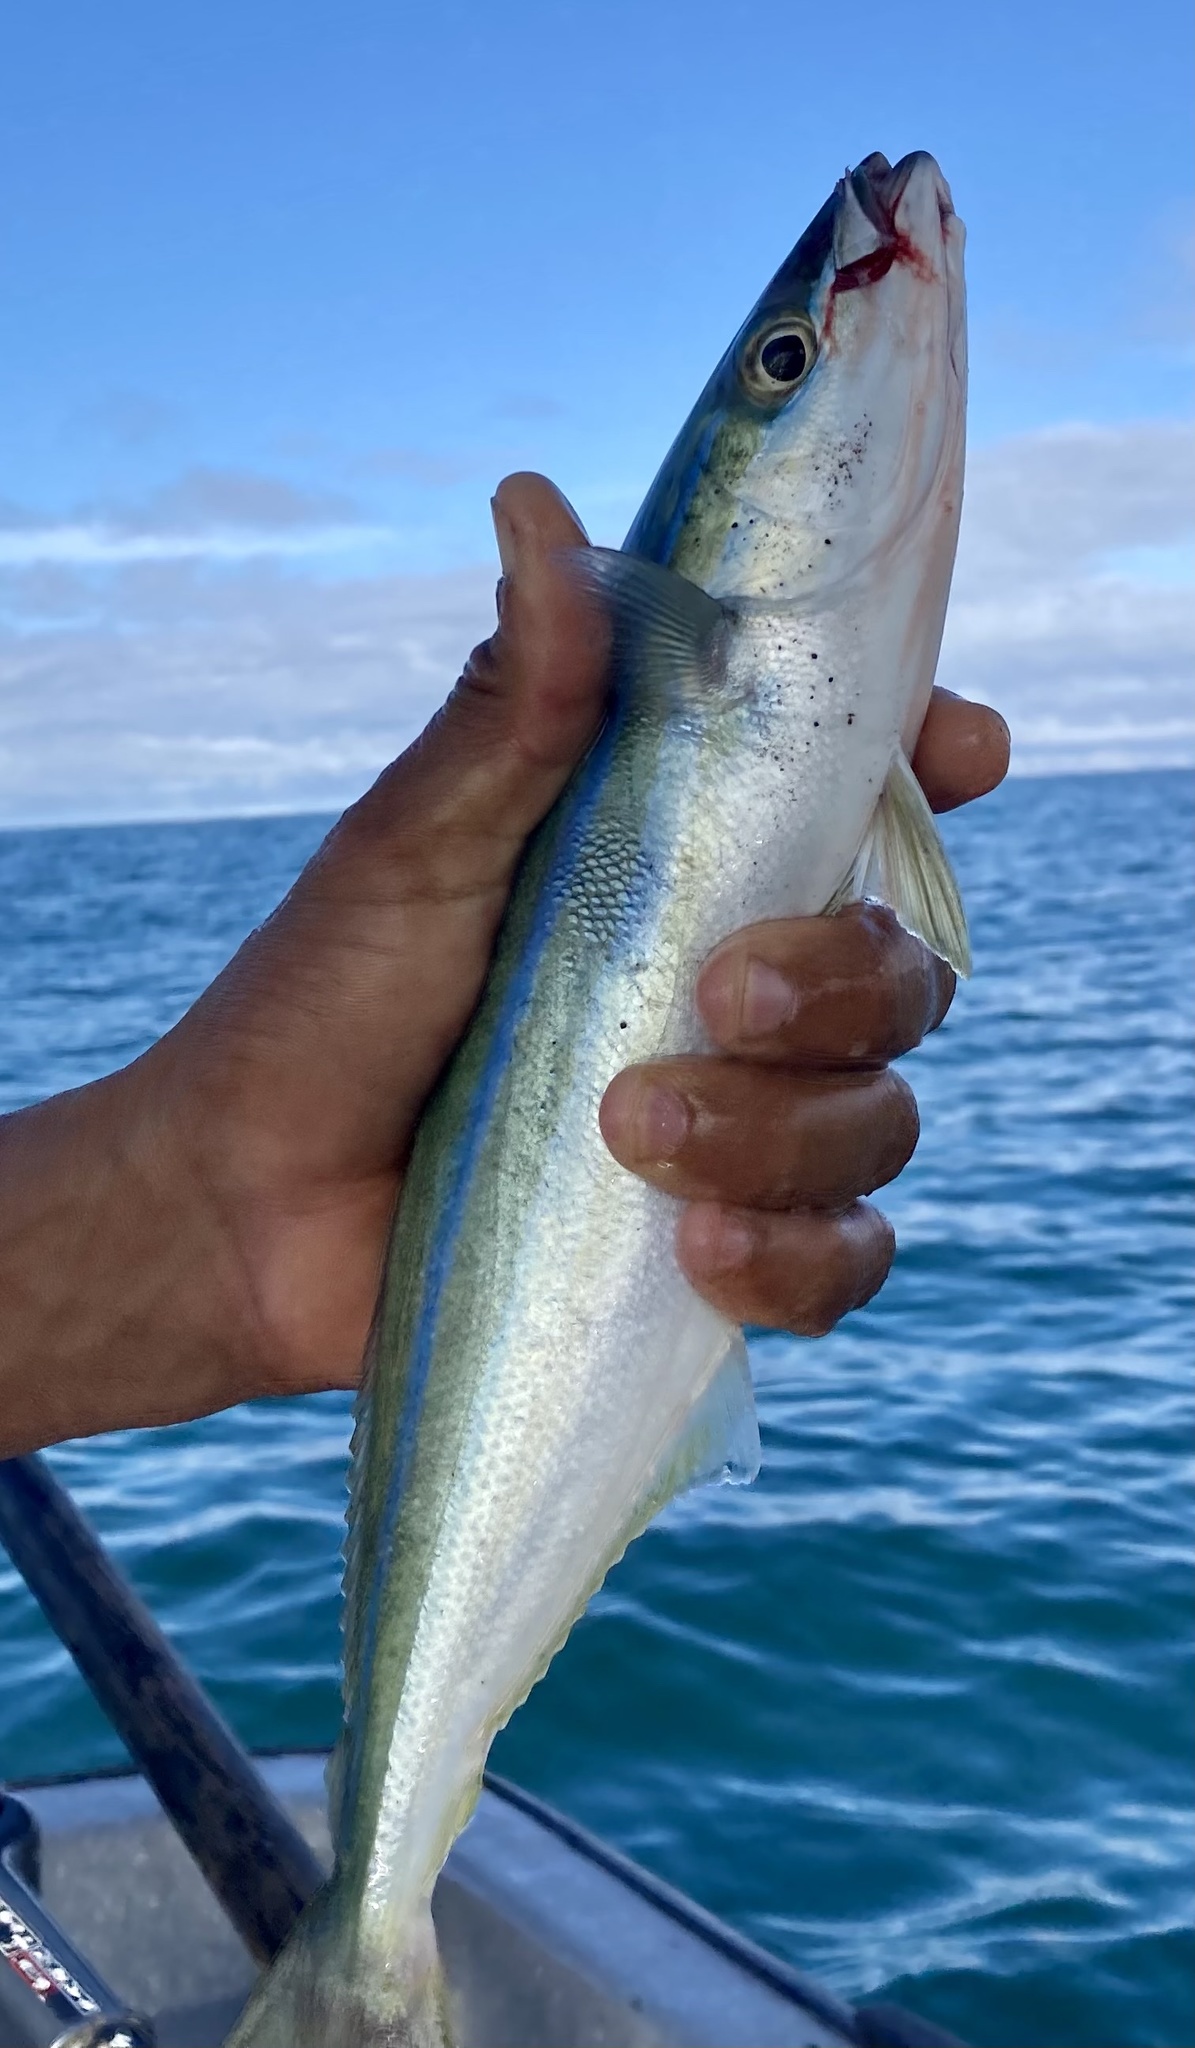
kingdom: Animalia
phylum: Chordata
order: Perciformes
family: Carangidae
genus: Elagatis
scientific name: Elagatis bipinnulata
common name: Rainbow runner
